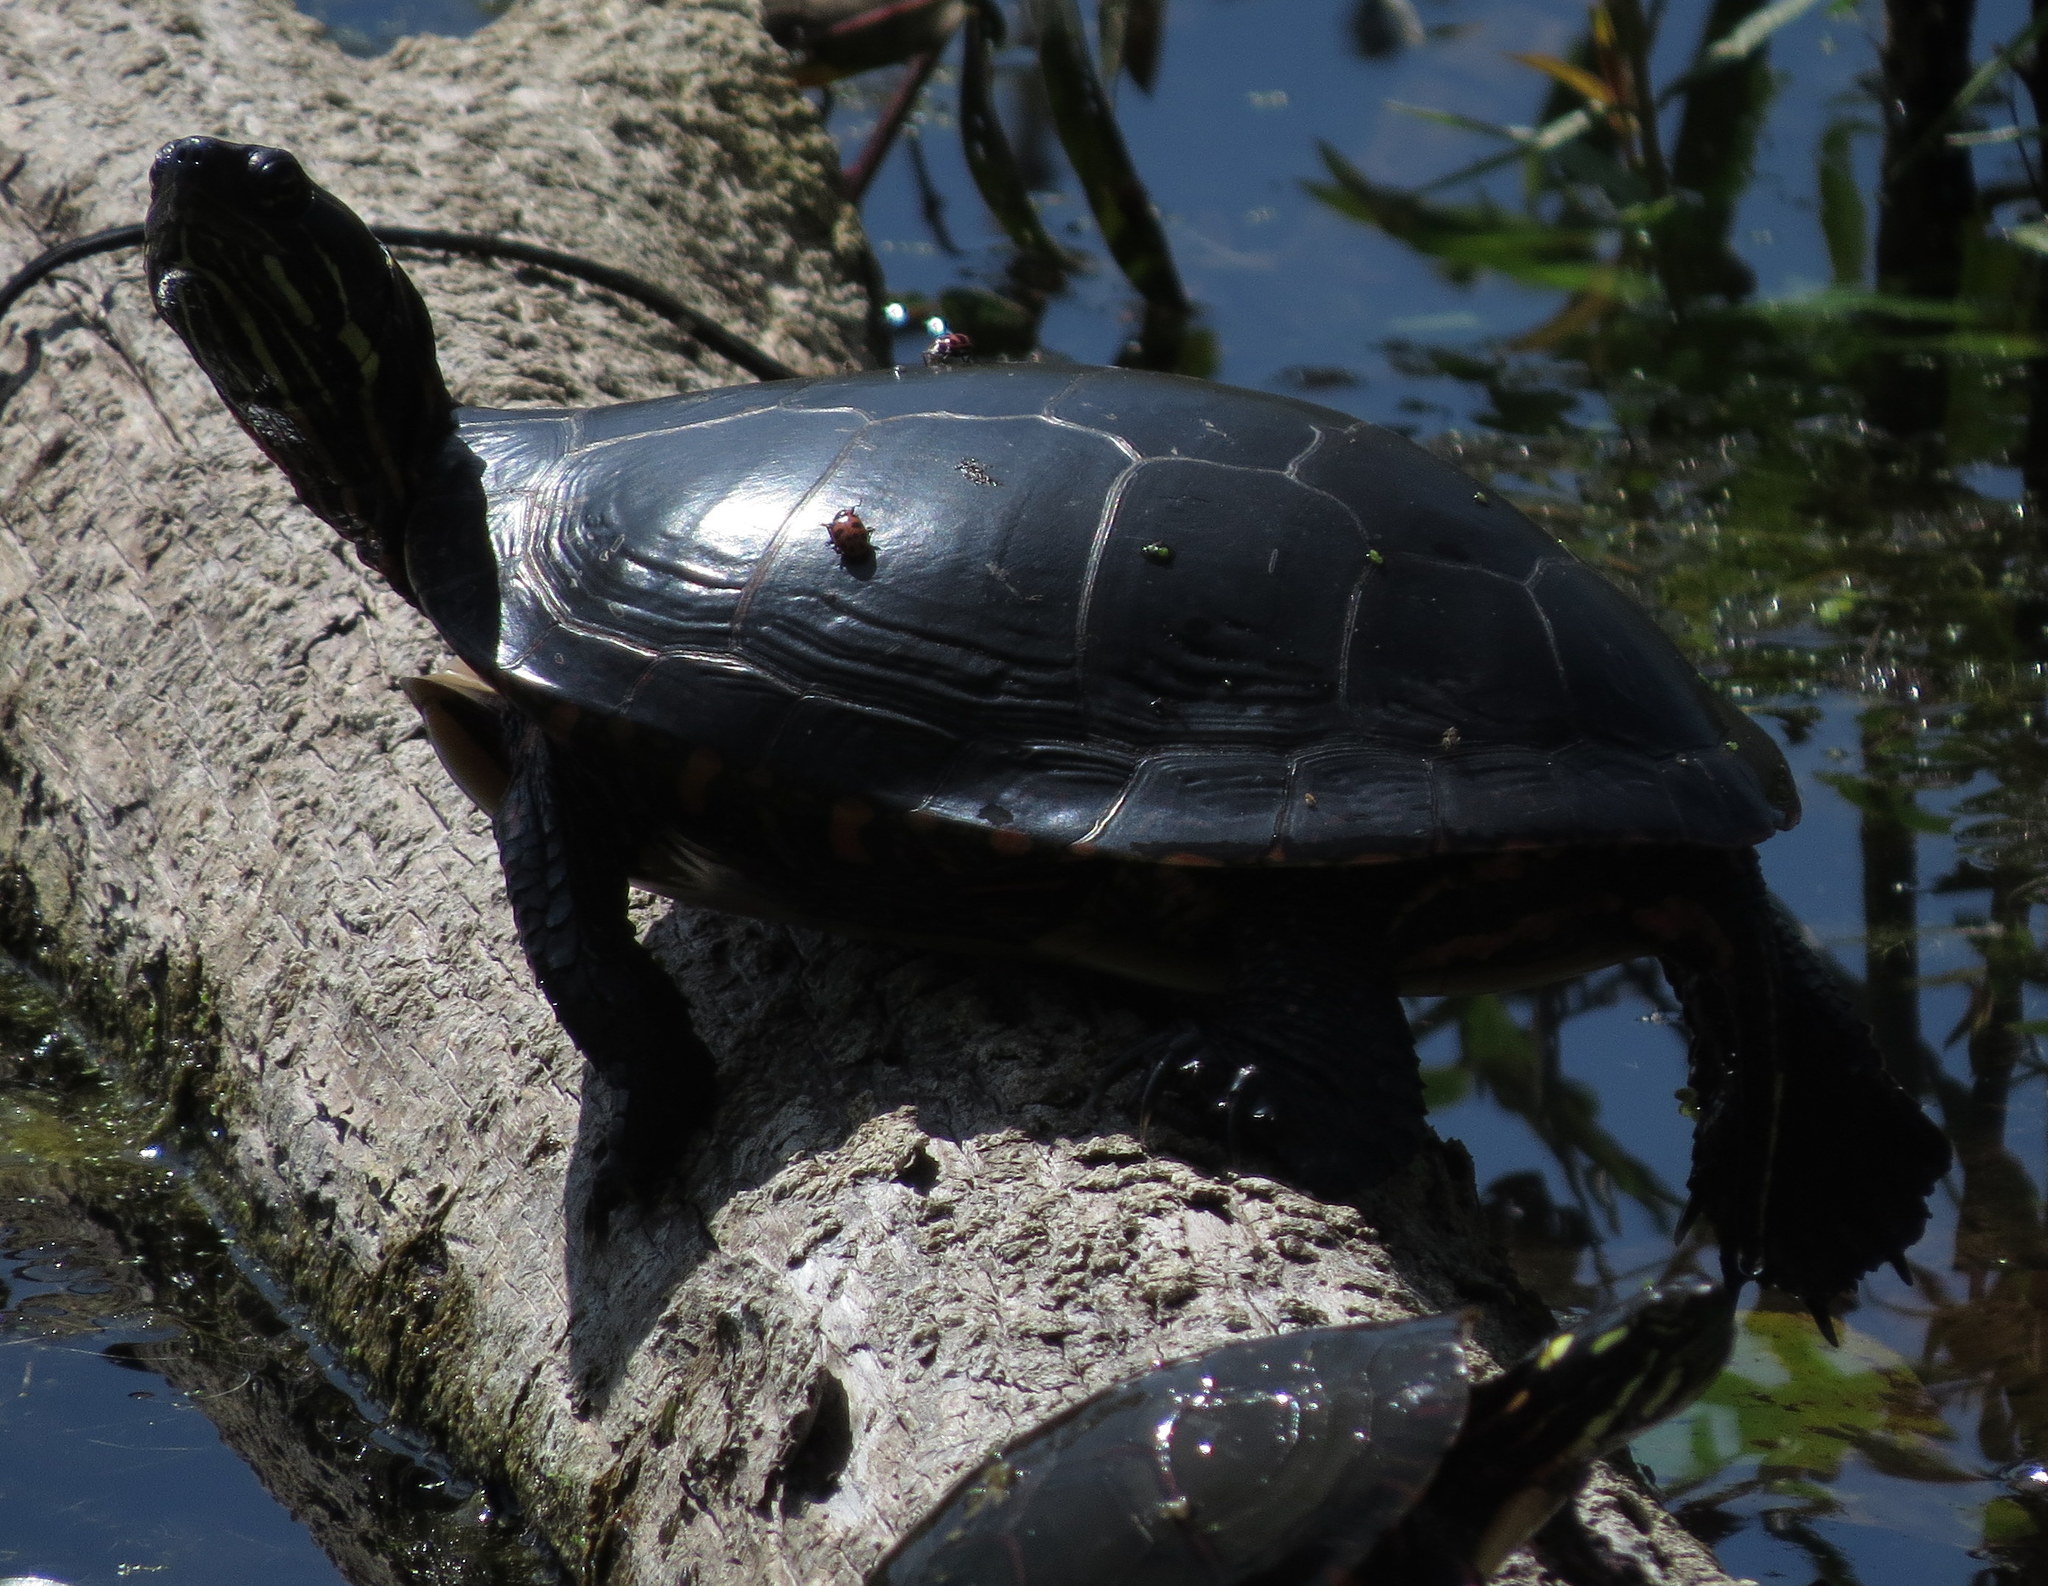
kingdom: Animalia
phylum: Chordata
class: Testudines
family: Emydidae
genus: Chrysemys
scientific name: Chrysemys picta
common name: Painted turtle
